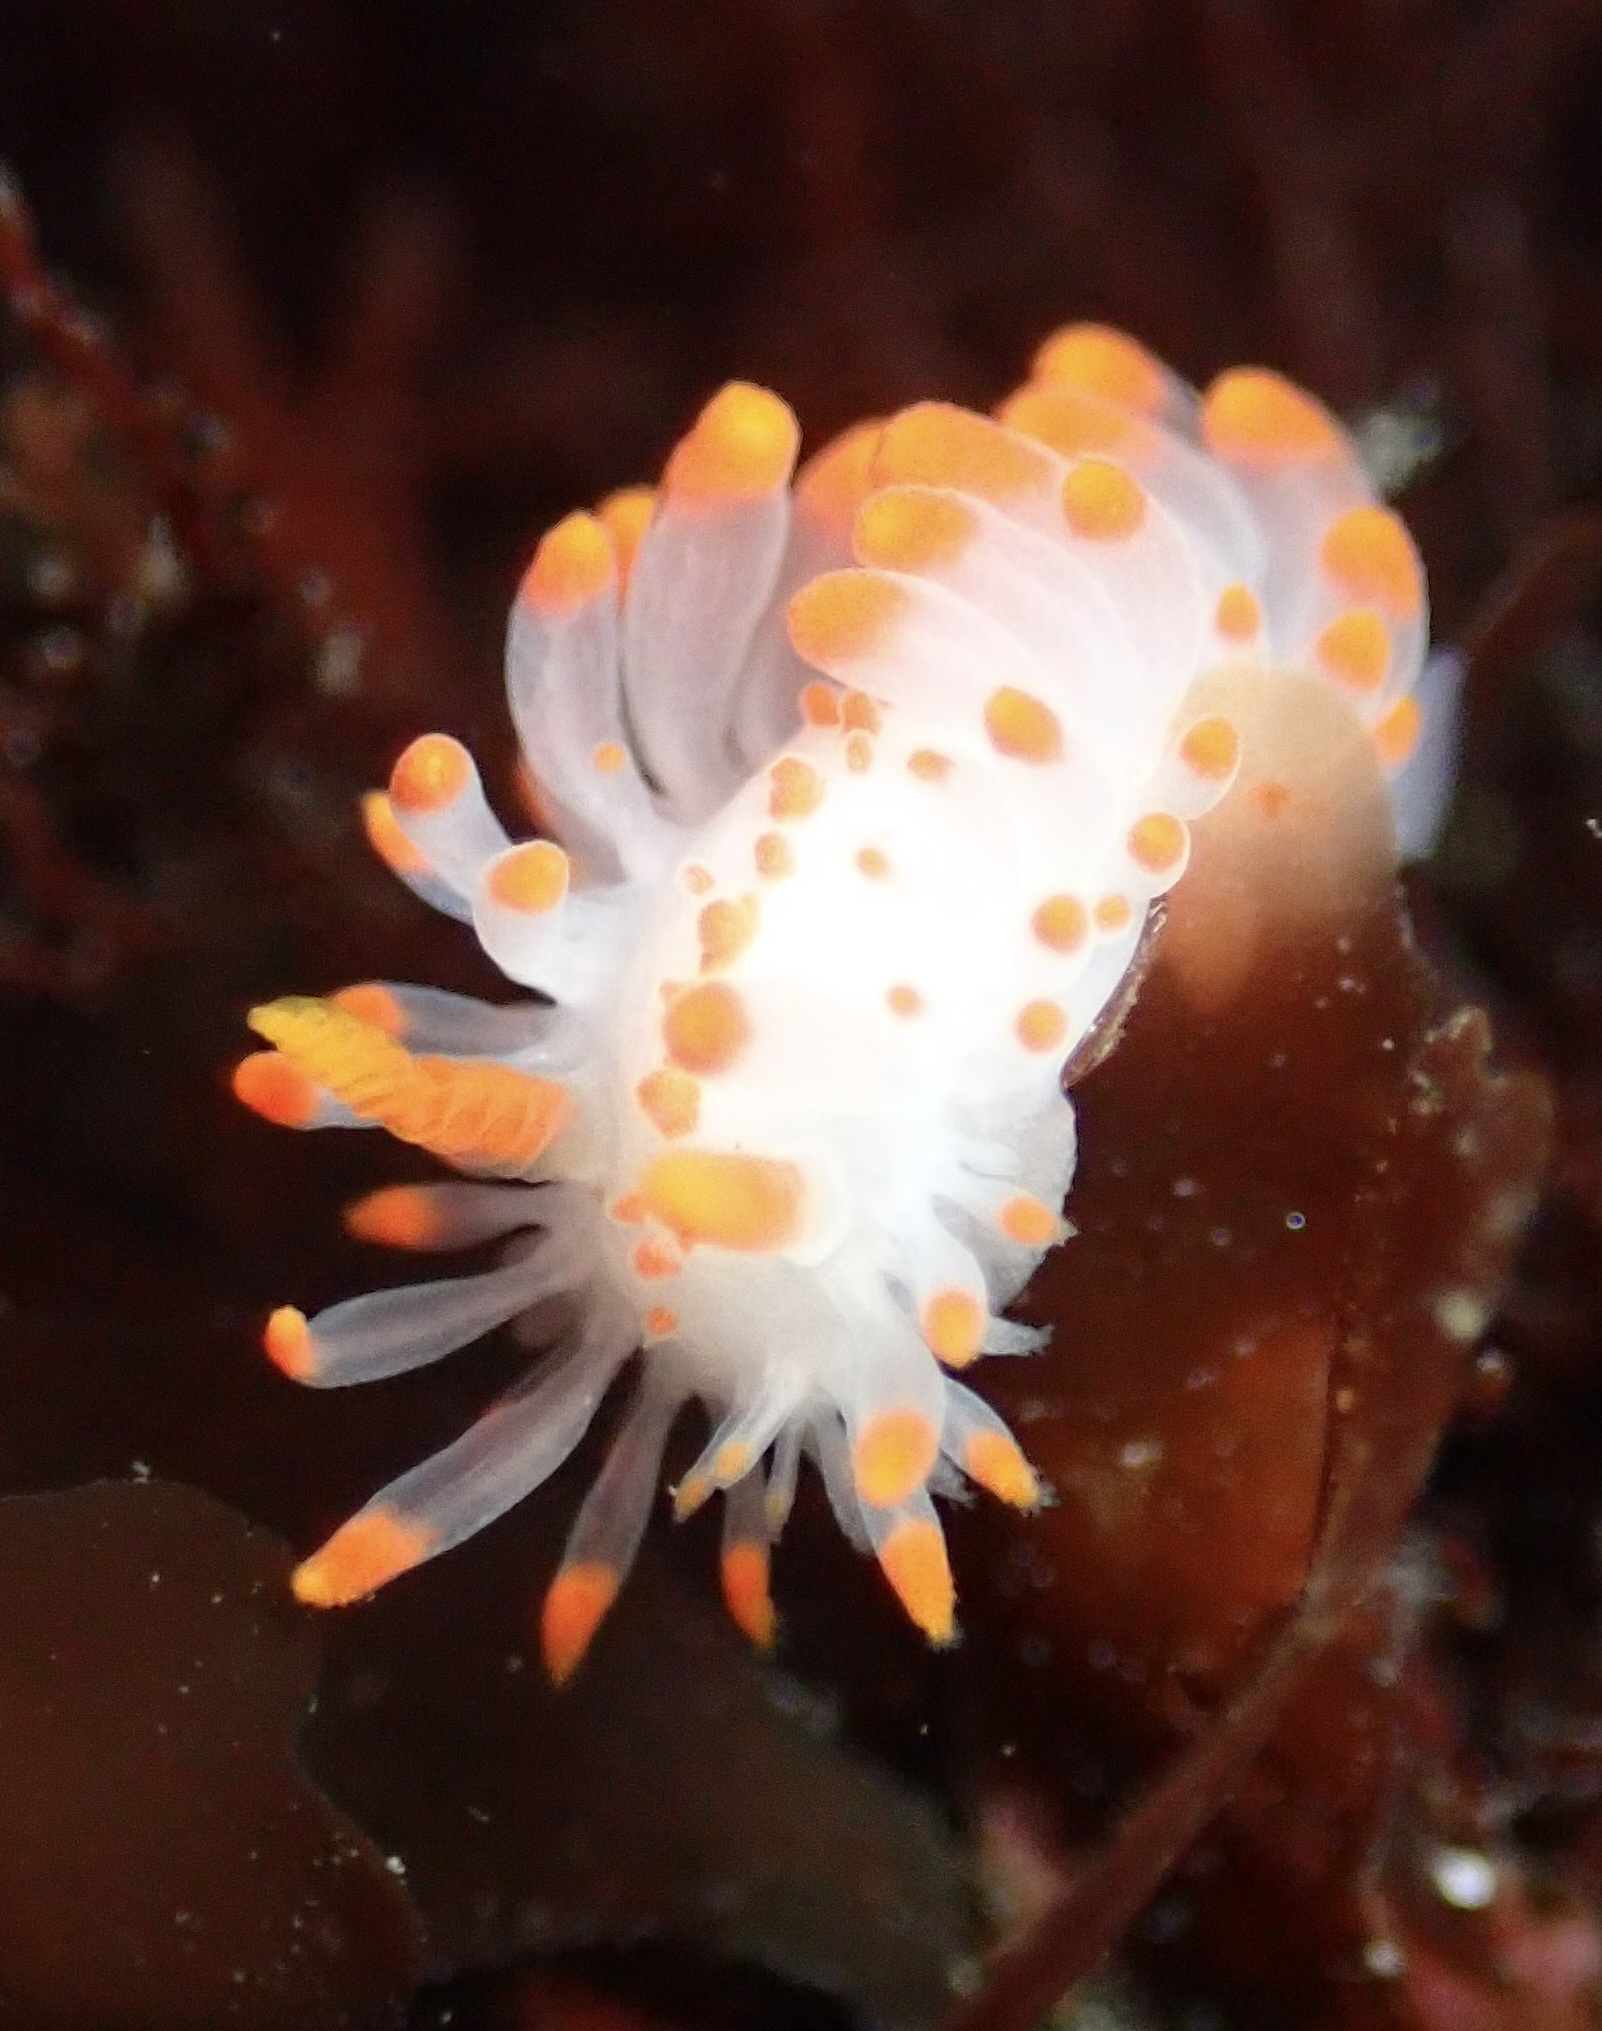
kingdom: Animalia
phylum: Mollusca
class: Gastropoda
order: Nudibranchia
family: Polyceridae
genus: Limacia
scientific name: Limacia mcdonaldi
